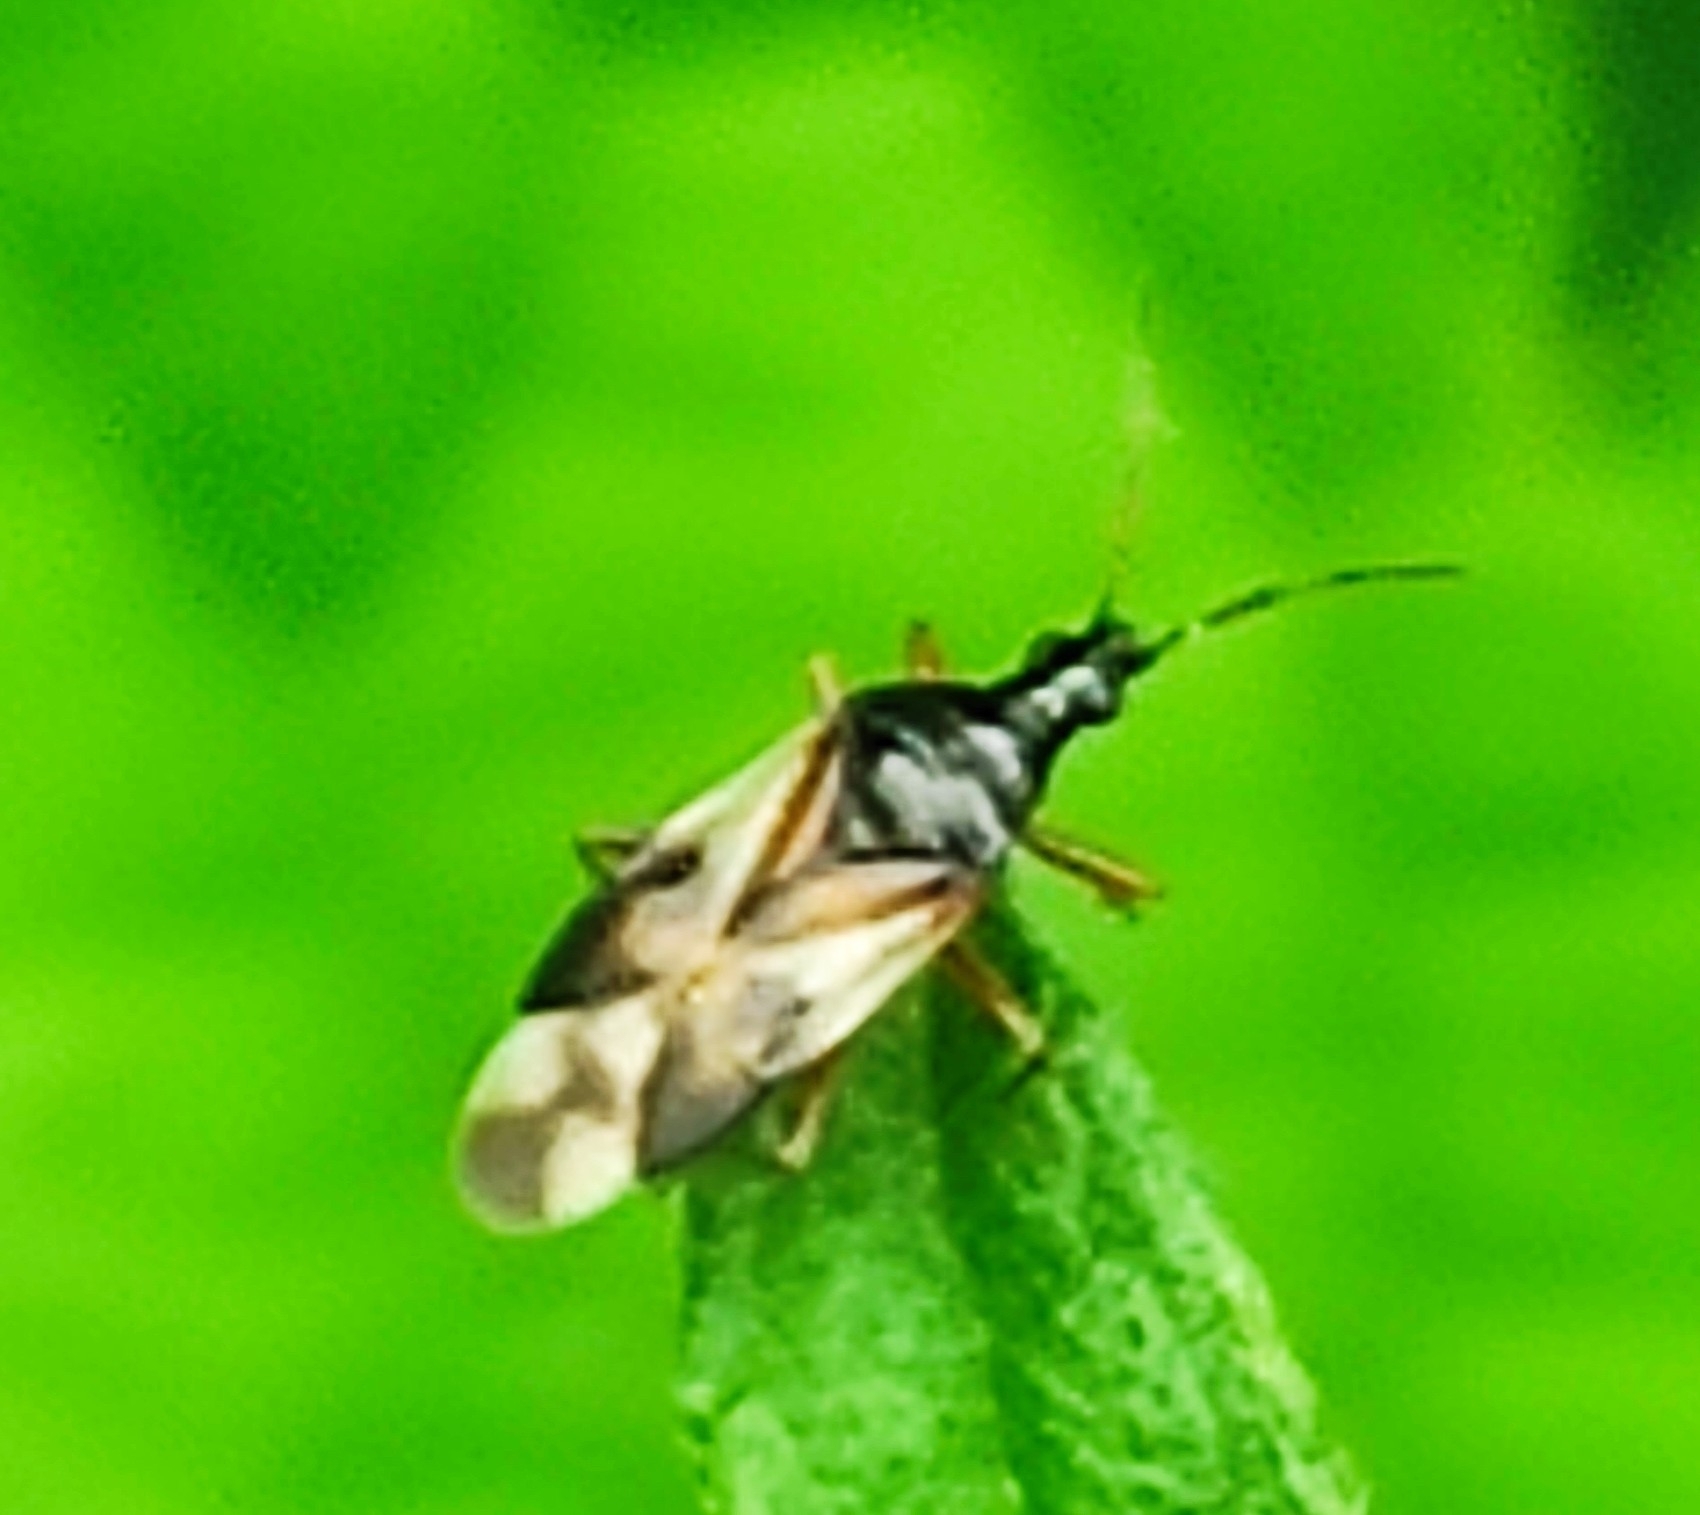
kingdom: Animalia
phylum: Arthropoda
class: Insecta
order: Hemiptera
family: Anthocoridae
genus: Anthocoris
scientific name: Anthocoris nemorum
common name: Minute pirate bug
